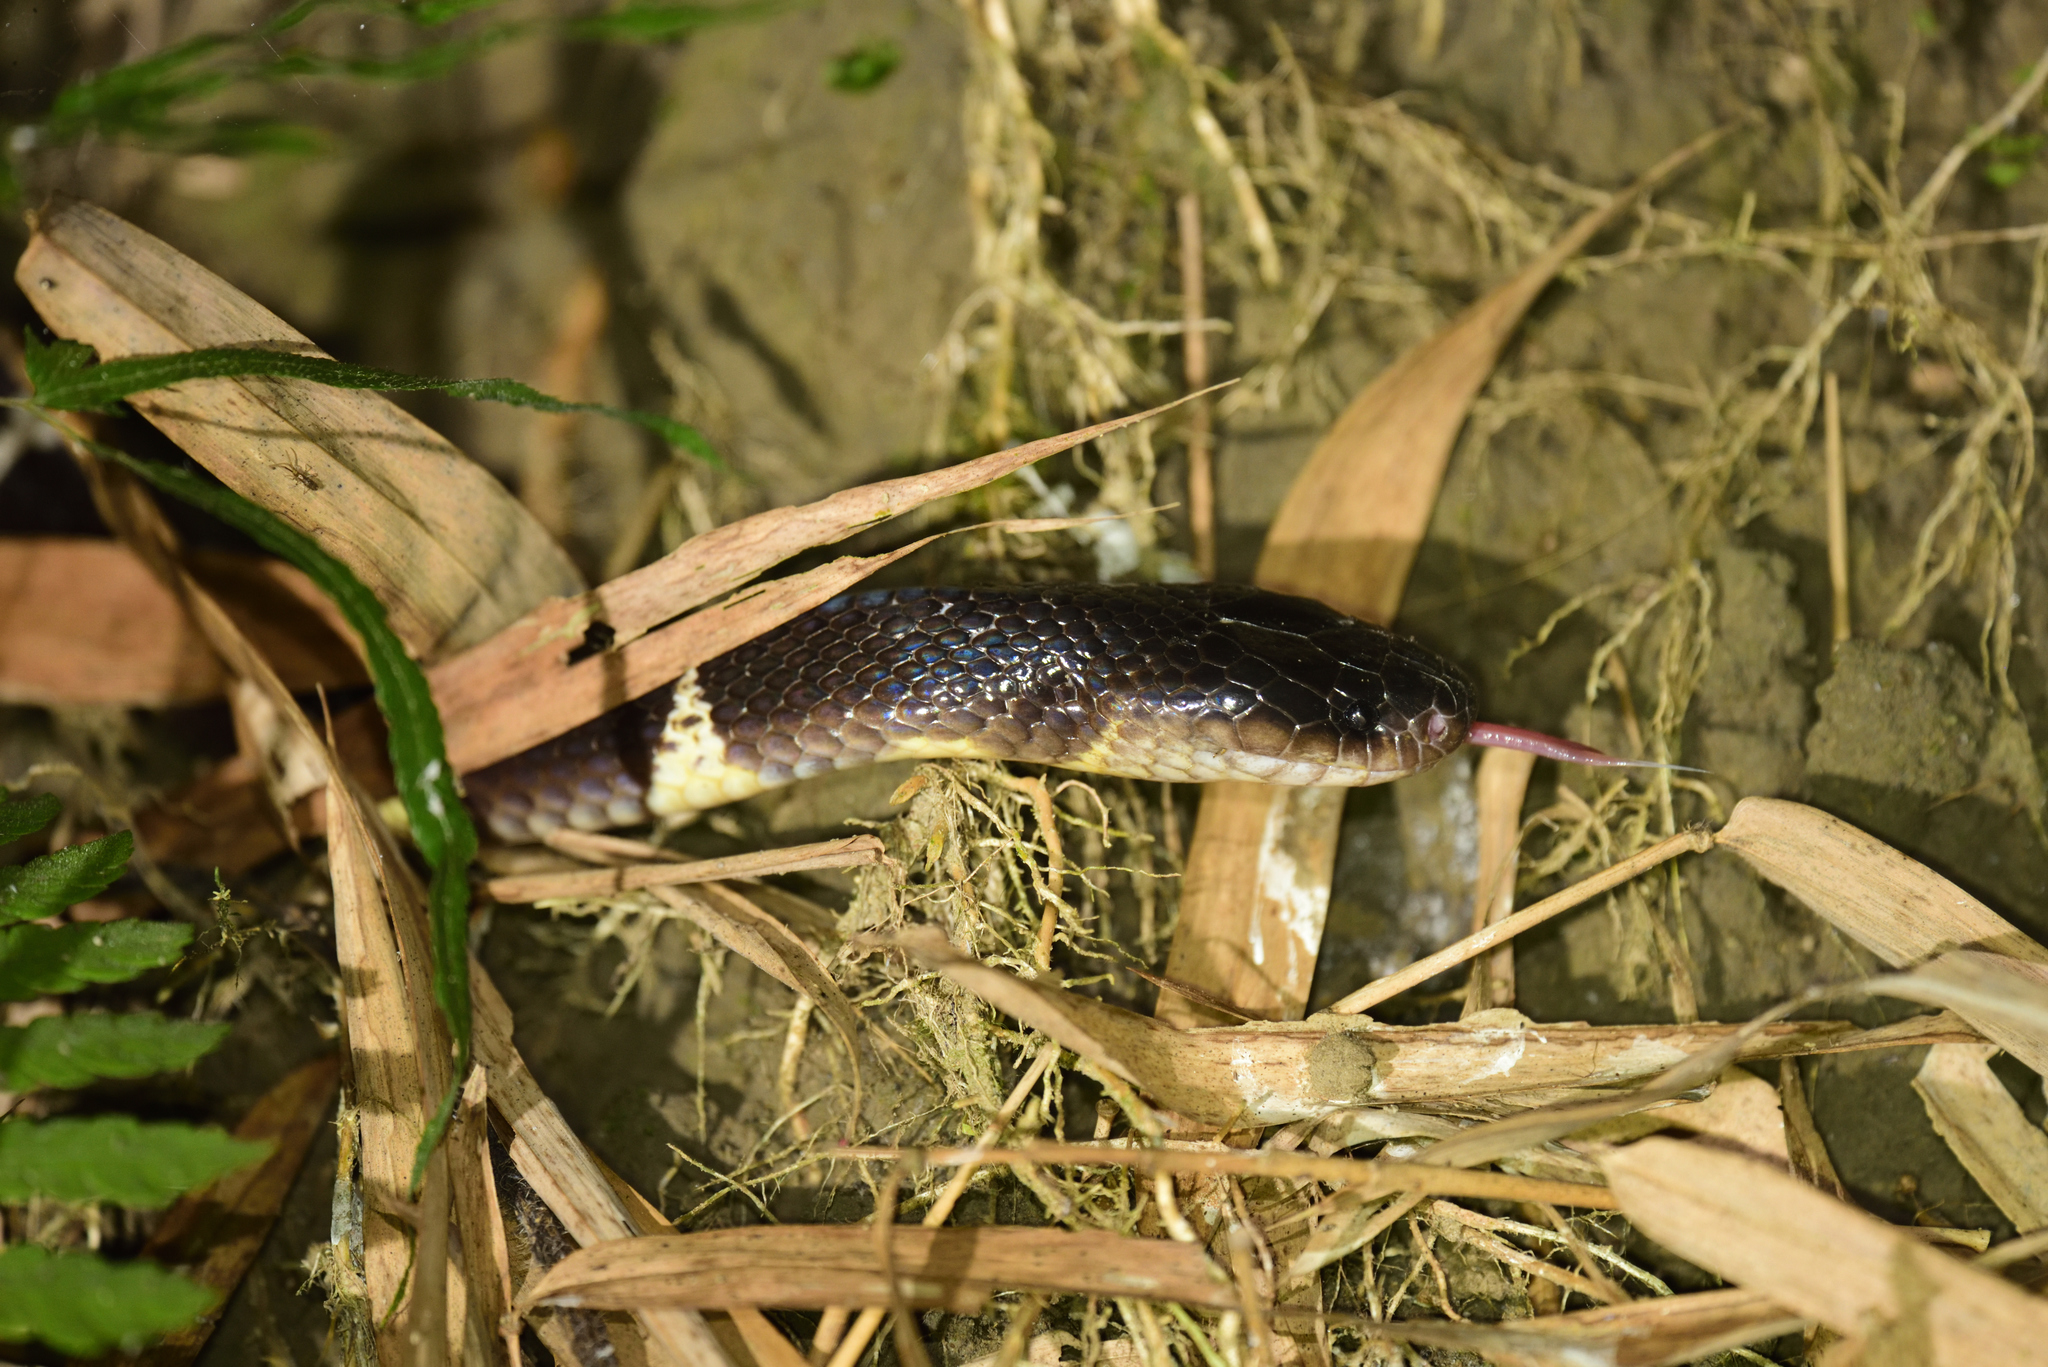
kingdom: Animalia
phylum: Chordata
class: Squamata
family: Elapidae
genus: Bungarus
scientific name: Bungarus multicinctus
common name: Many-banded krait
